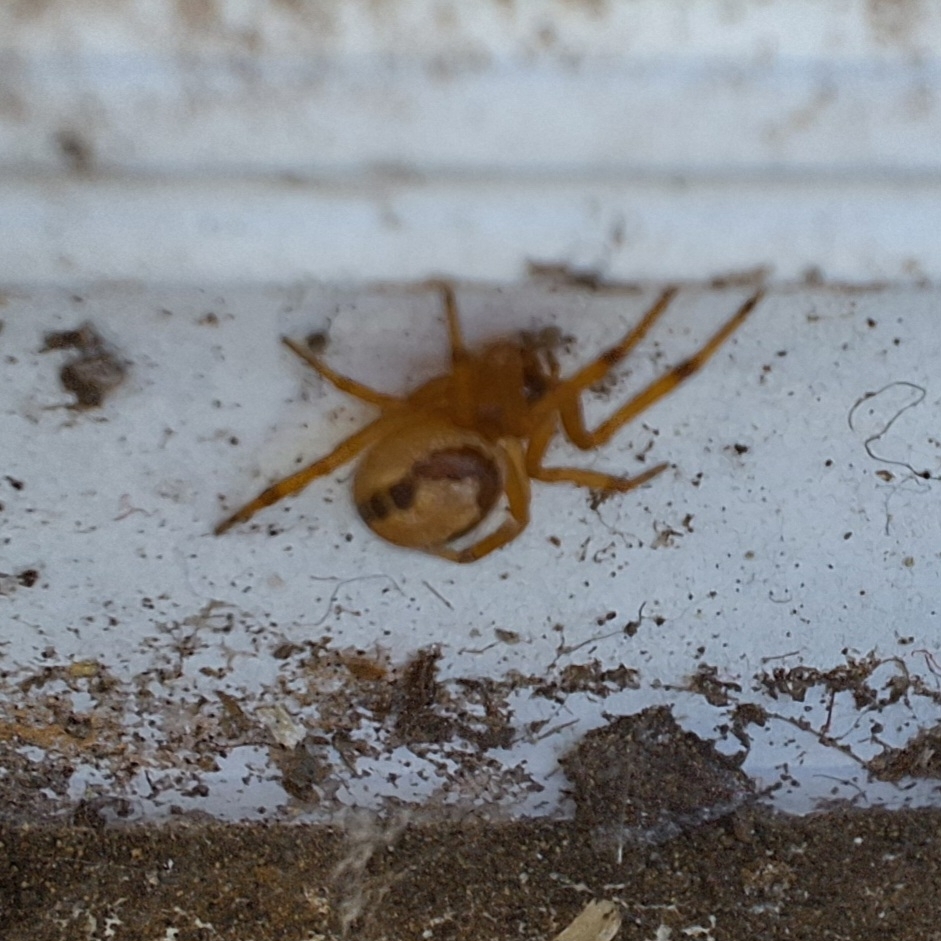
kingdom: Animalia
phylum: Arthropoda
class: Arachnida
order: Araneae
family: Theridiidae
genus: Steatoda
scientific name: Steatoda nobilis
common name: Cobweb weaver
